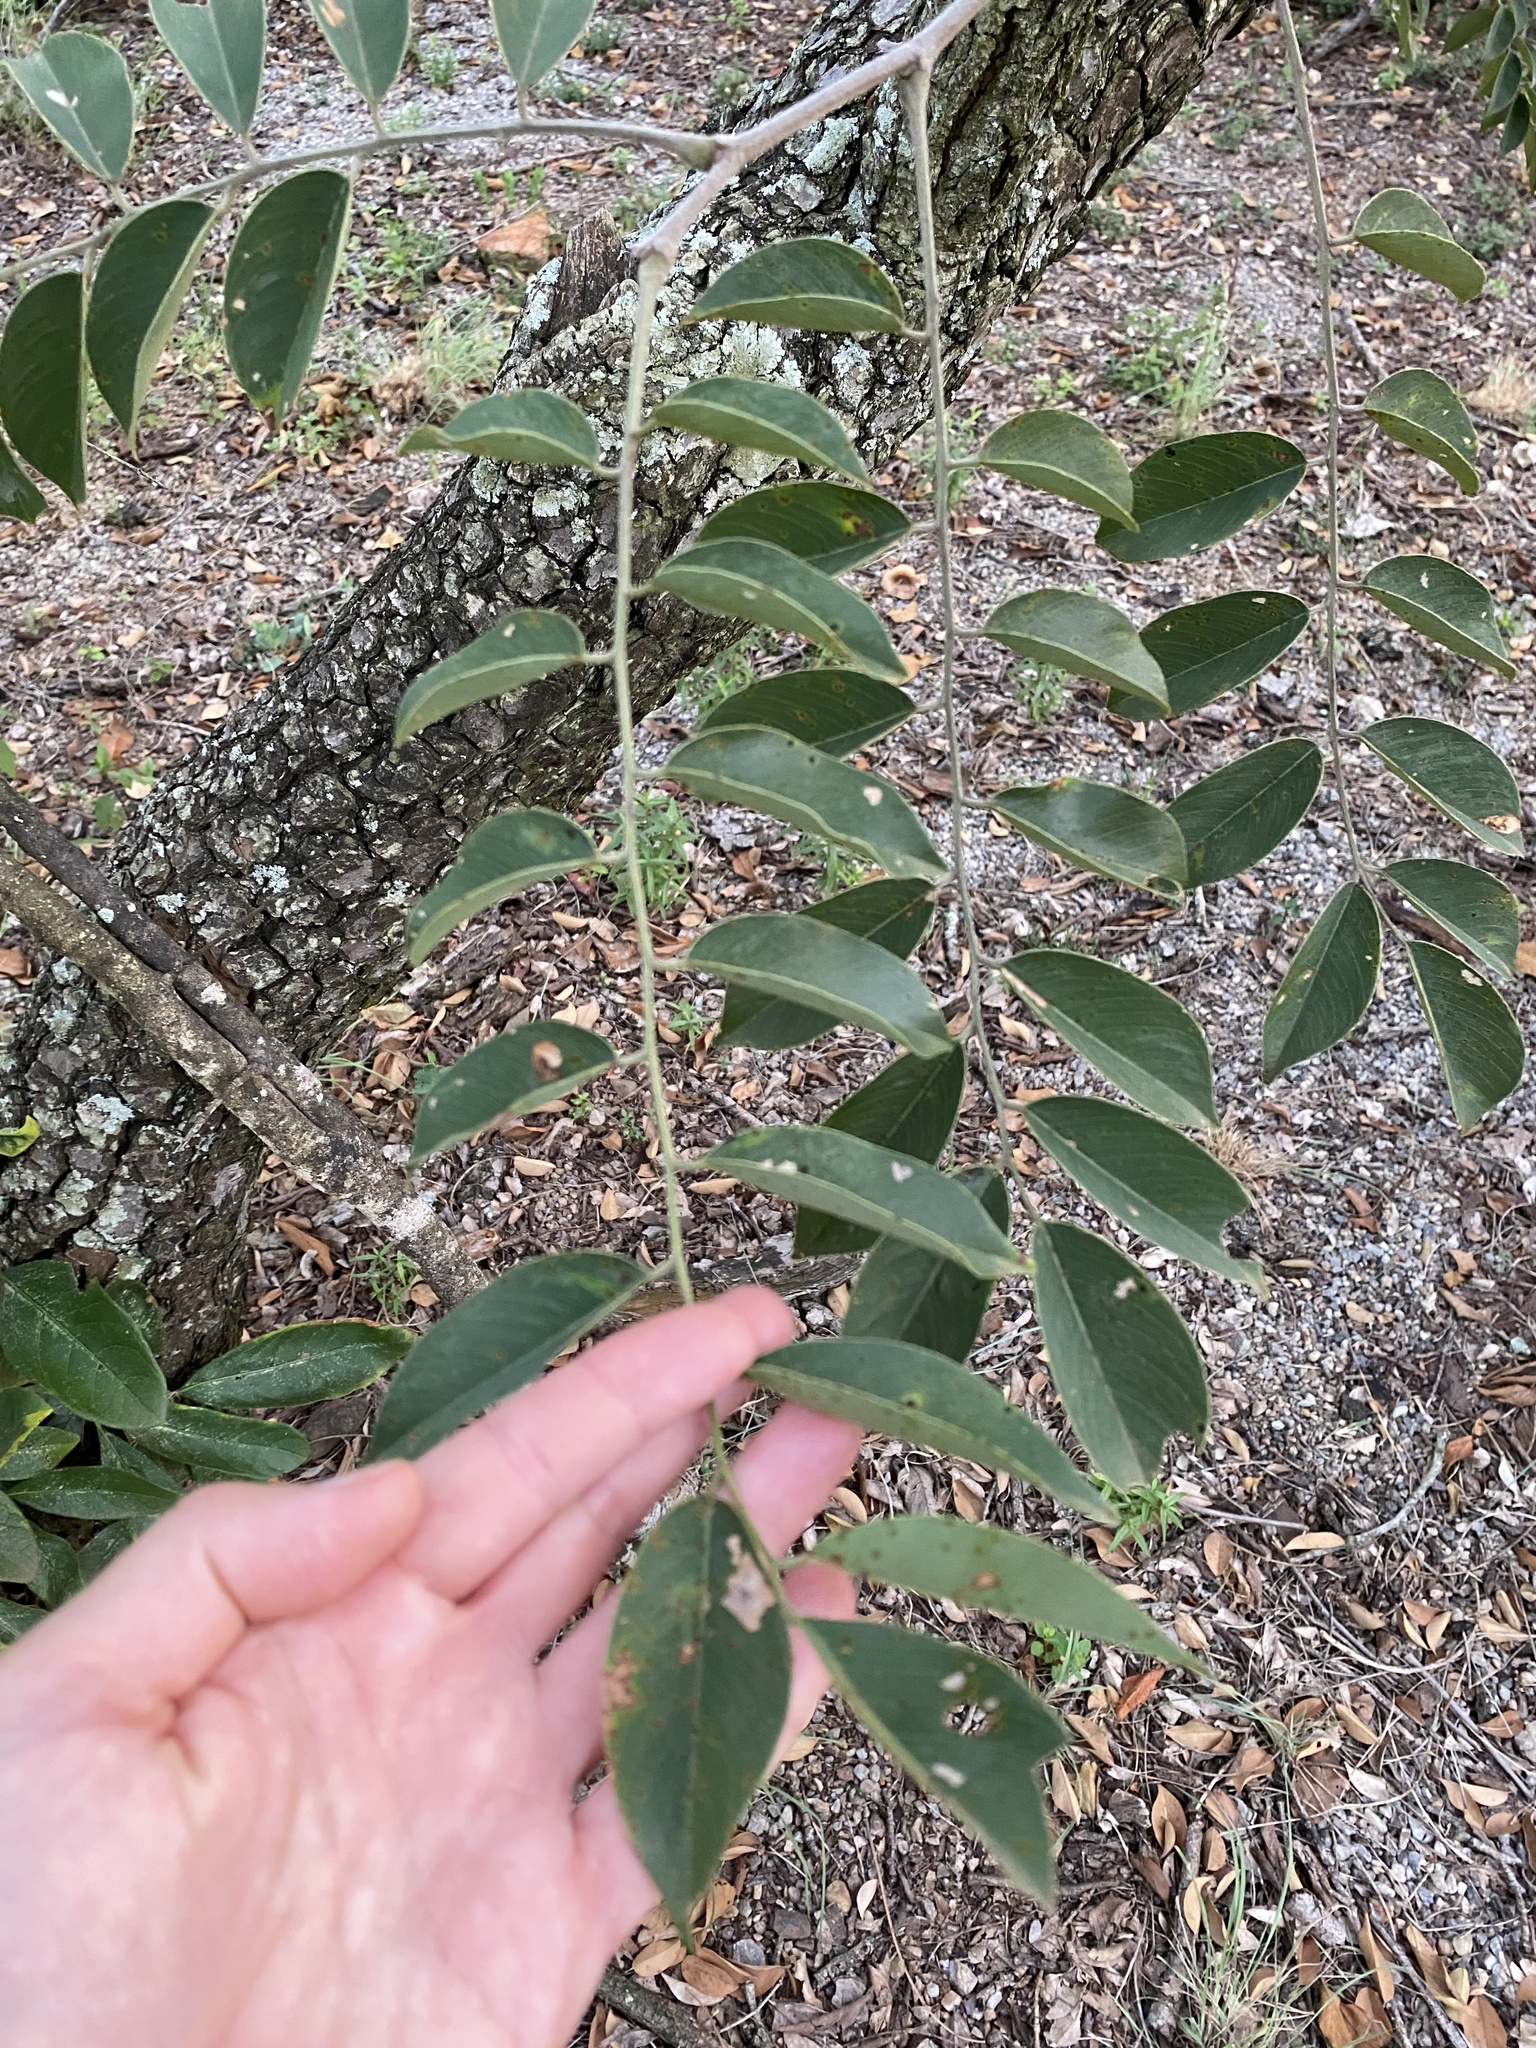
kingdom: Plantae
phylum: Tracheophyta
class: Magnoliopsida
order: Fabales
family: Fabaceae
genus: Pterocarpus
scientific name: Pterocarpus rotundifolius
